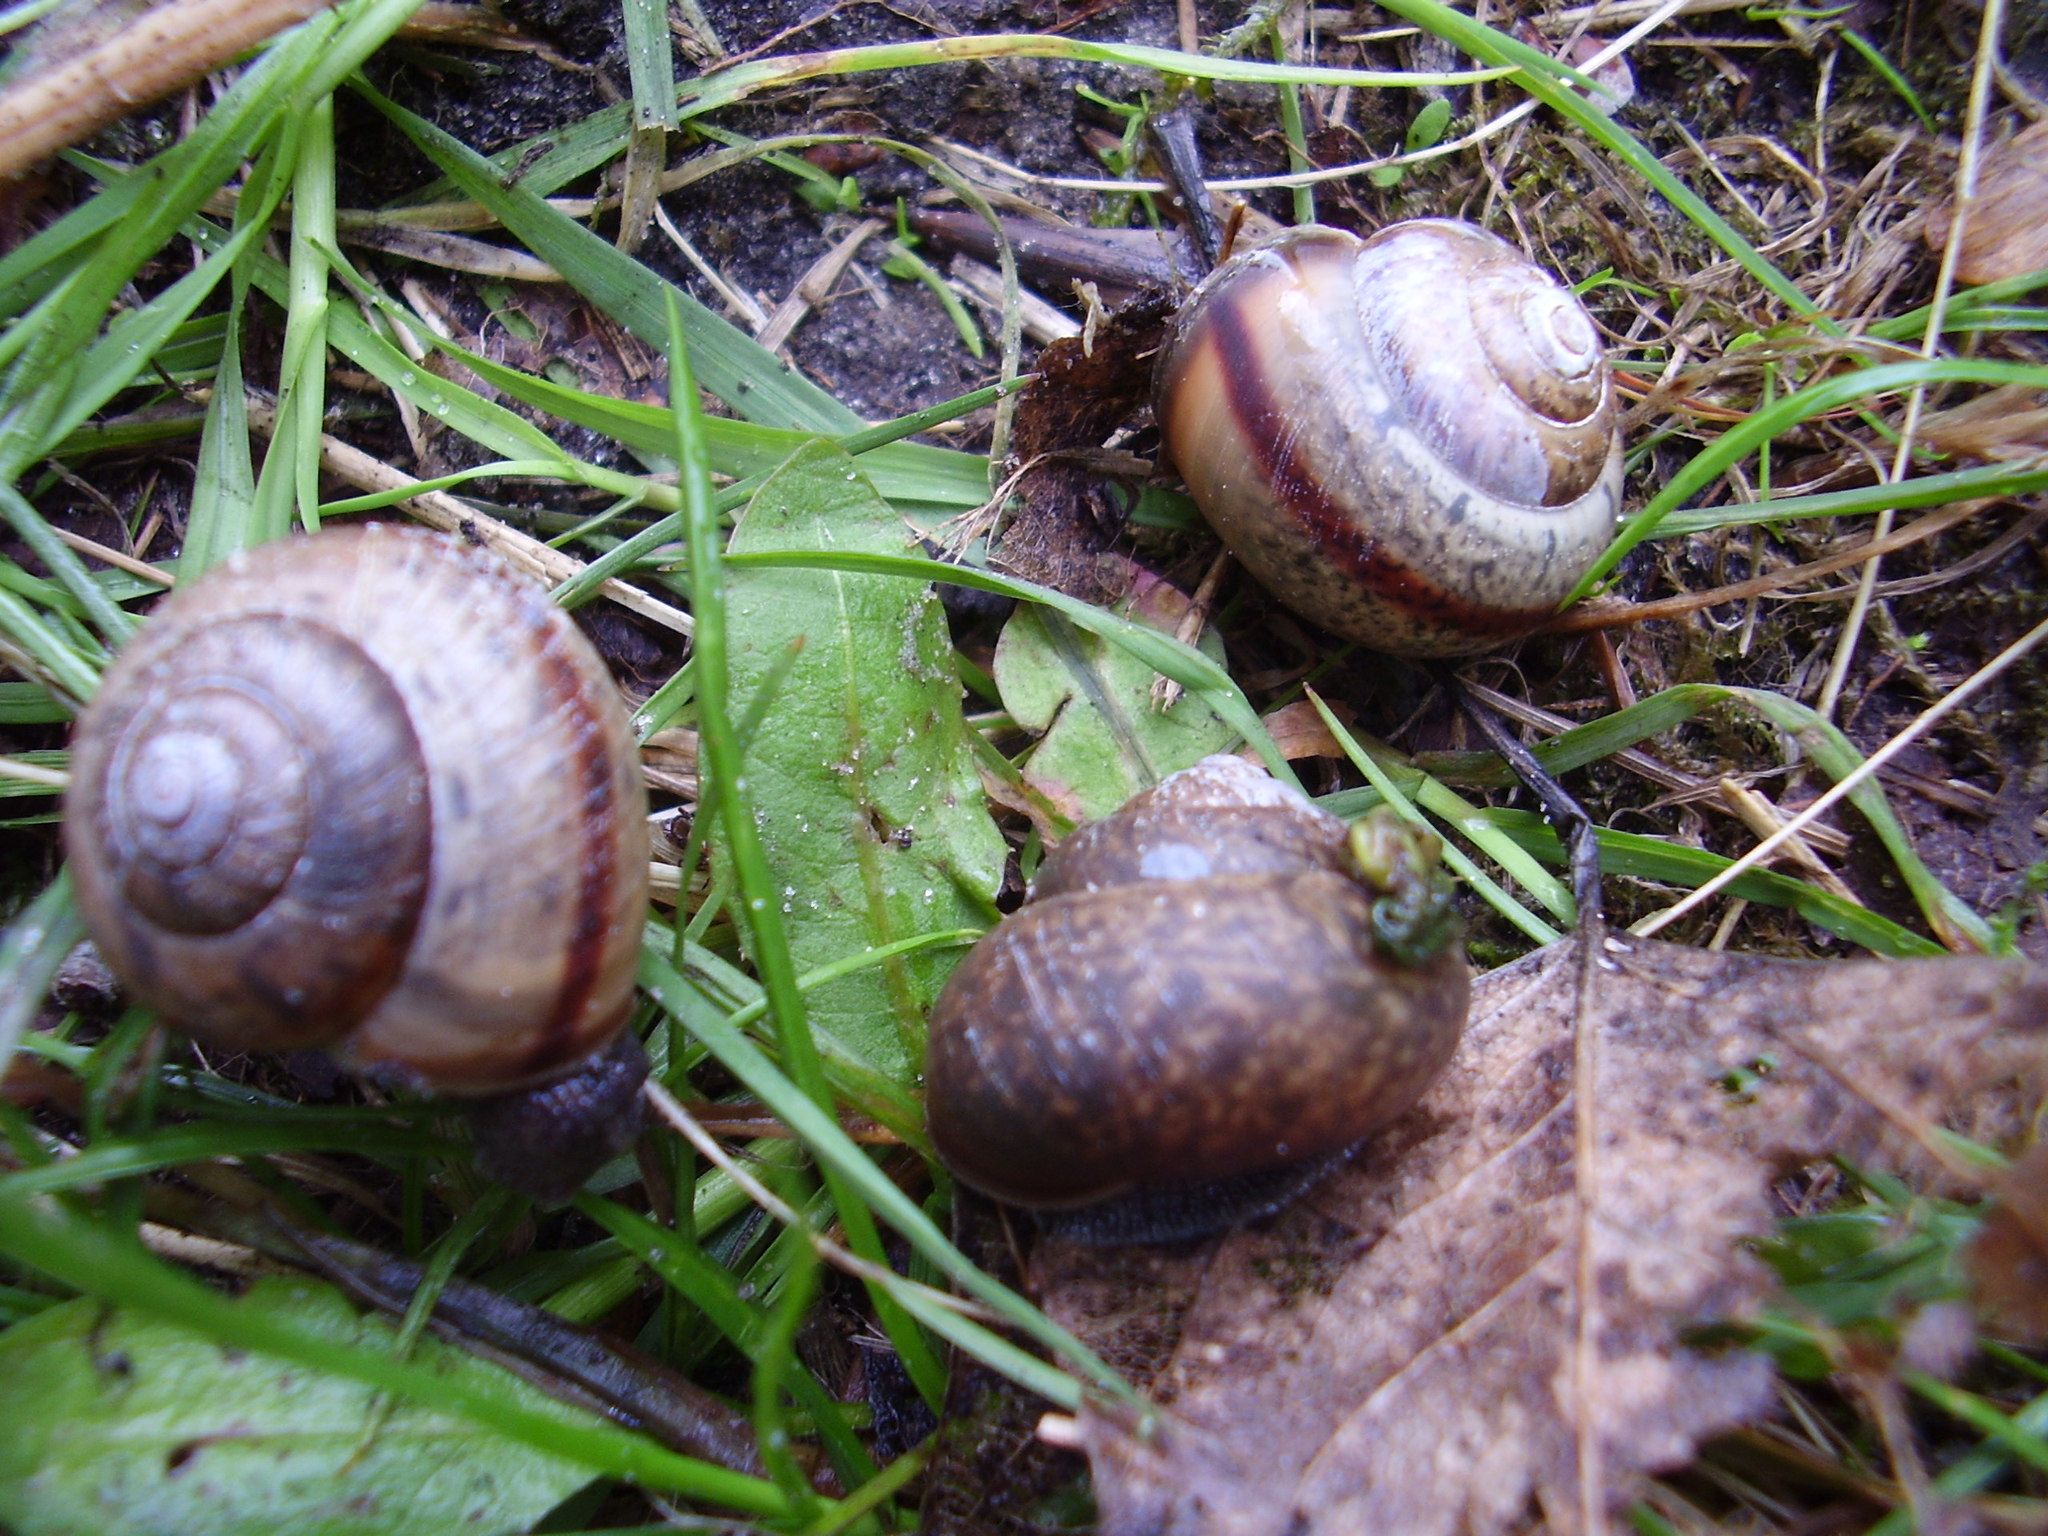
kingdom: Animalia
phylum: Mollusca
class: Gastropoda
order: Stylommatophora
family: Camaenidae
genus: Fruticicola
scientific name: Fruticicola fruticum
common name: Bush snail
